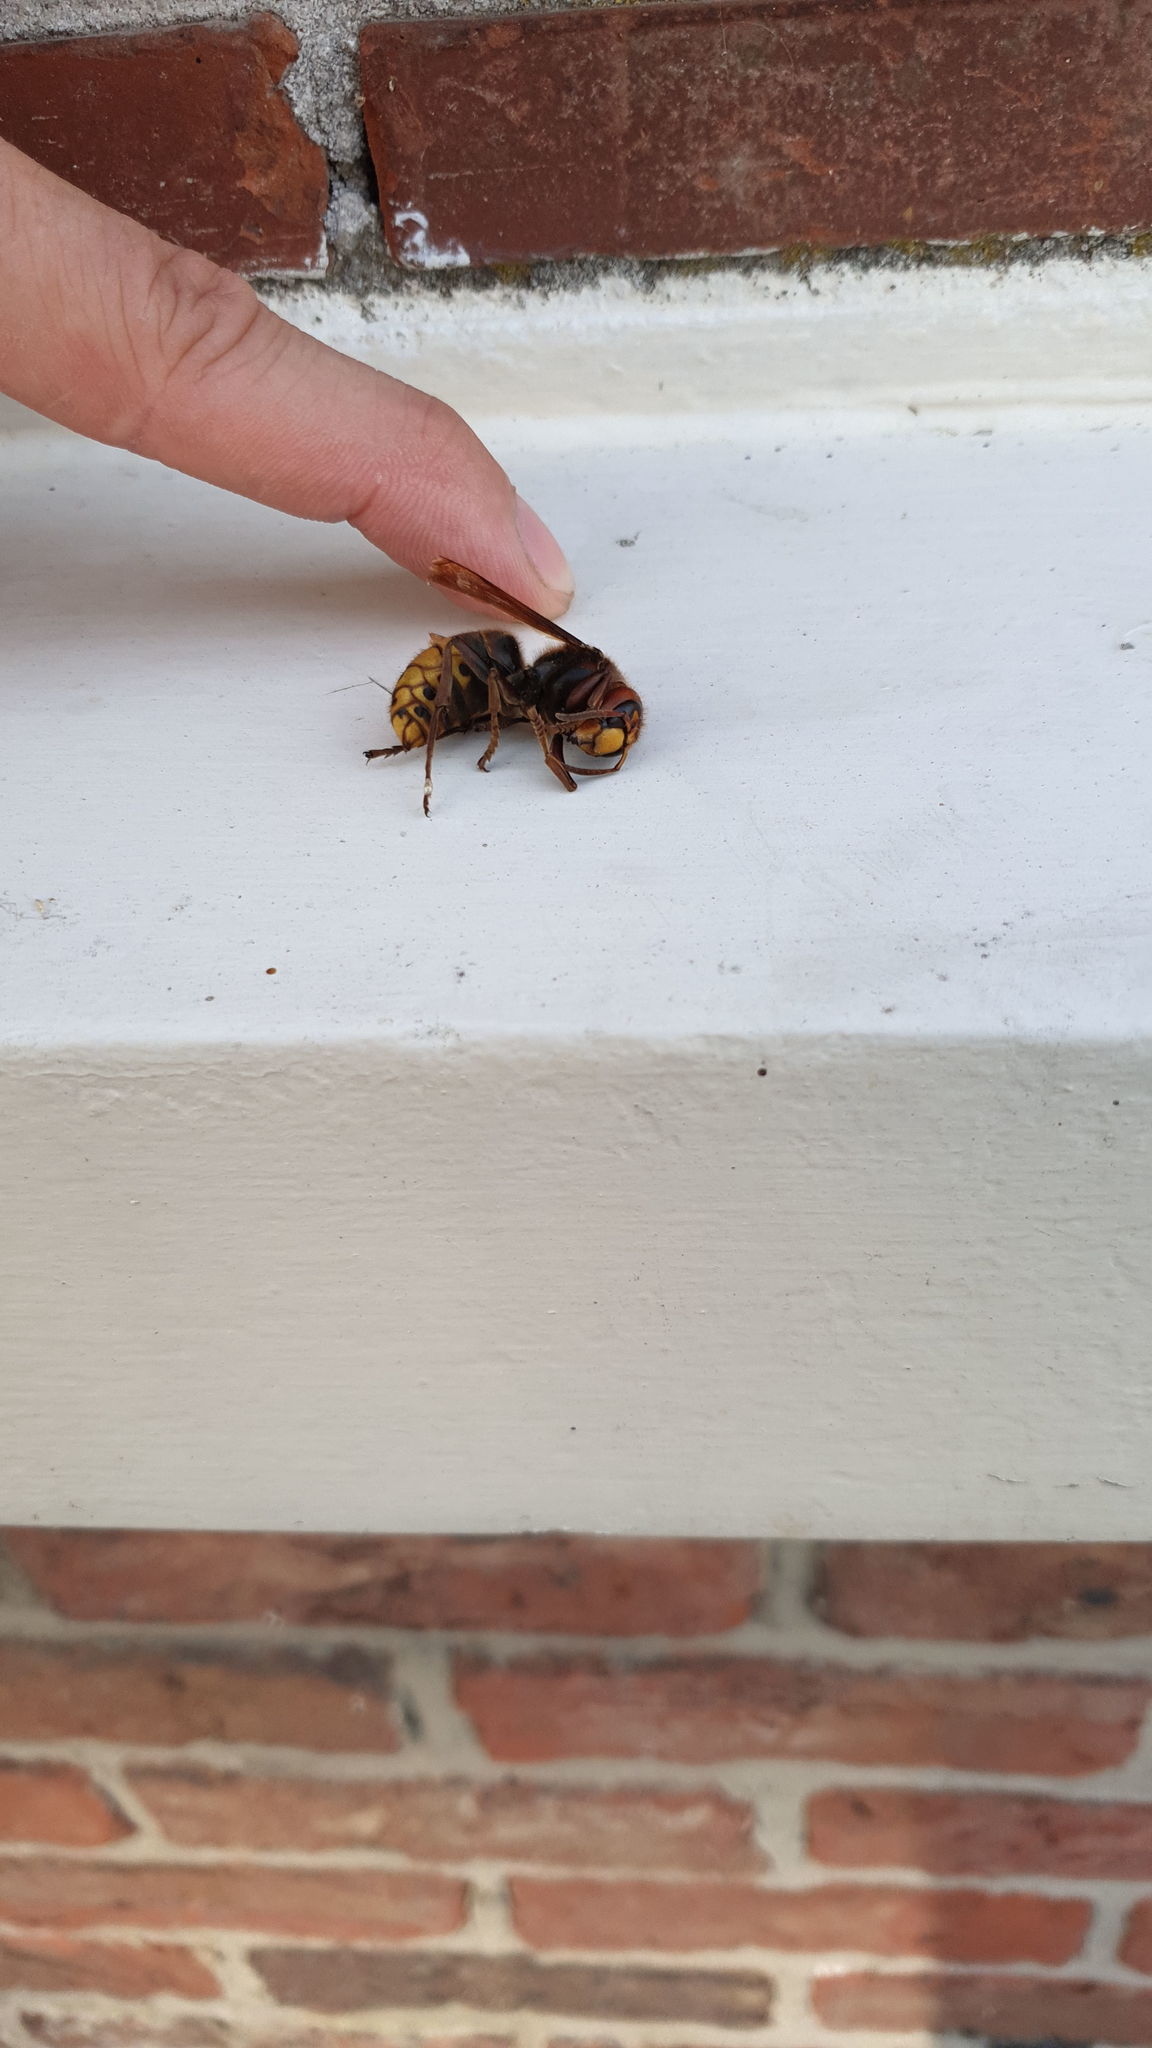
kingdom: Animalia
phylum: Arthropoda
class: Insecta
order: Hymenoptera
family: Vespidae
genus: Vespa
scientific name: Vespa crabro
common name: Hornet
